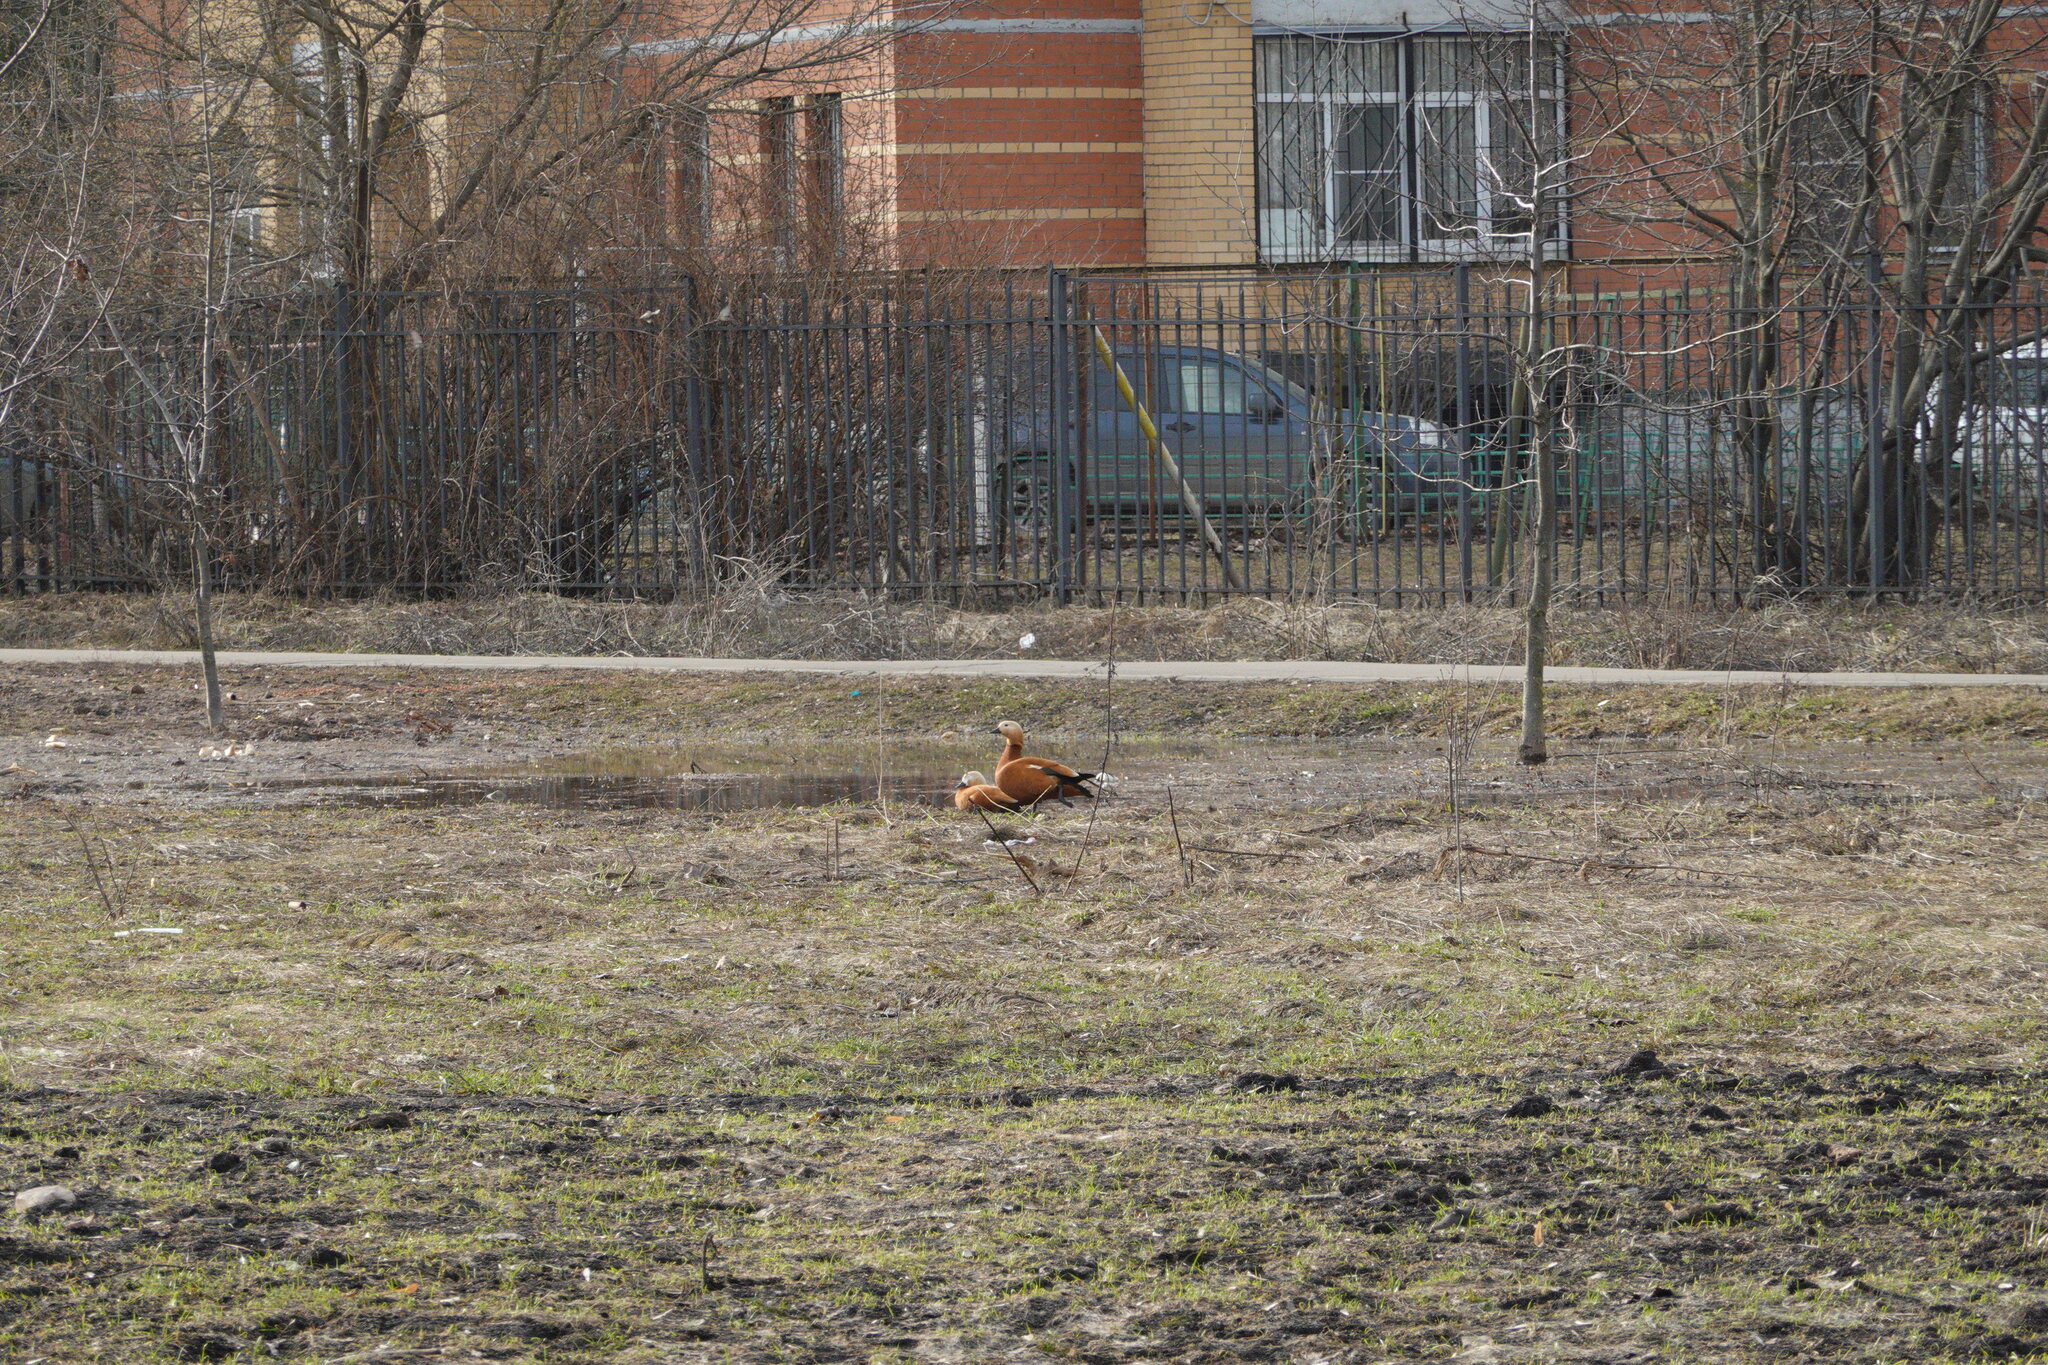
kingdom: Animalia
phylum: Chordata
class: Aves
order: Anseriformes
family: Anatidae
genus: Tadorna
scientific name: Tadorna ferruginea
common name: Ruddy shelduck
